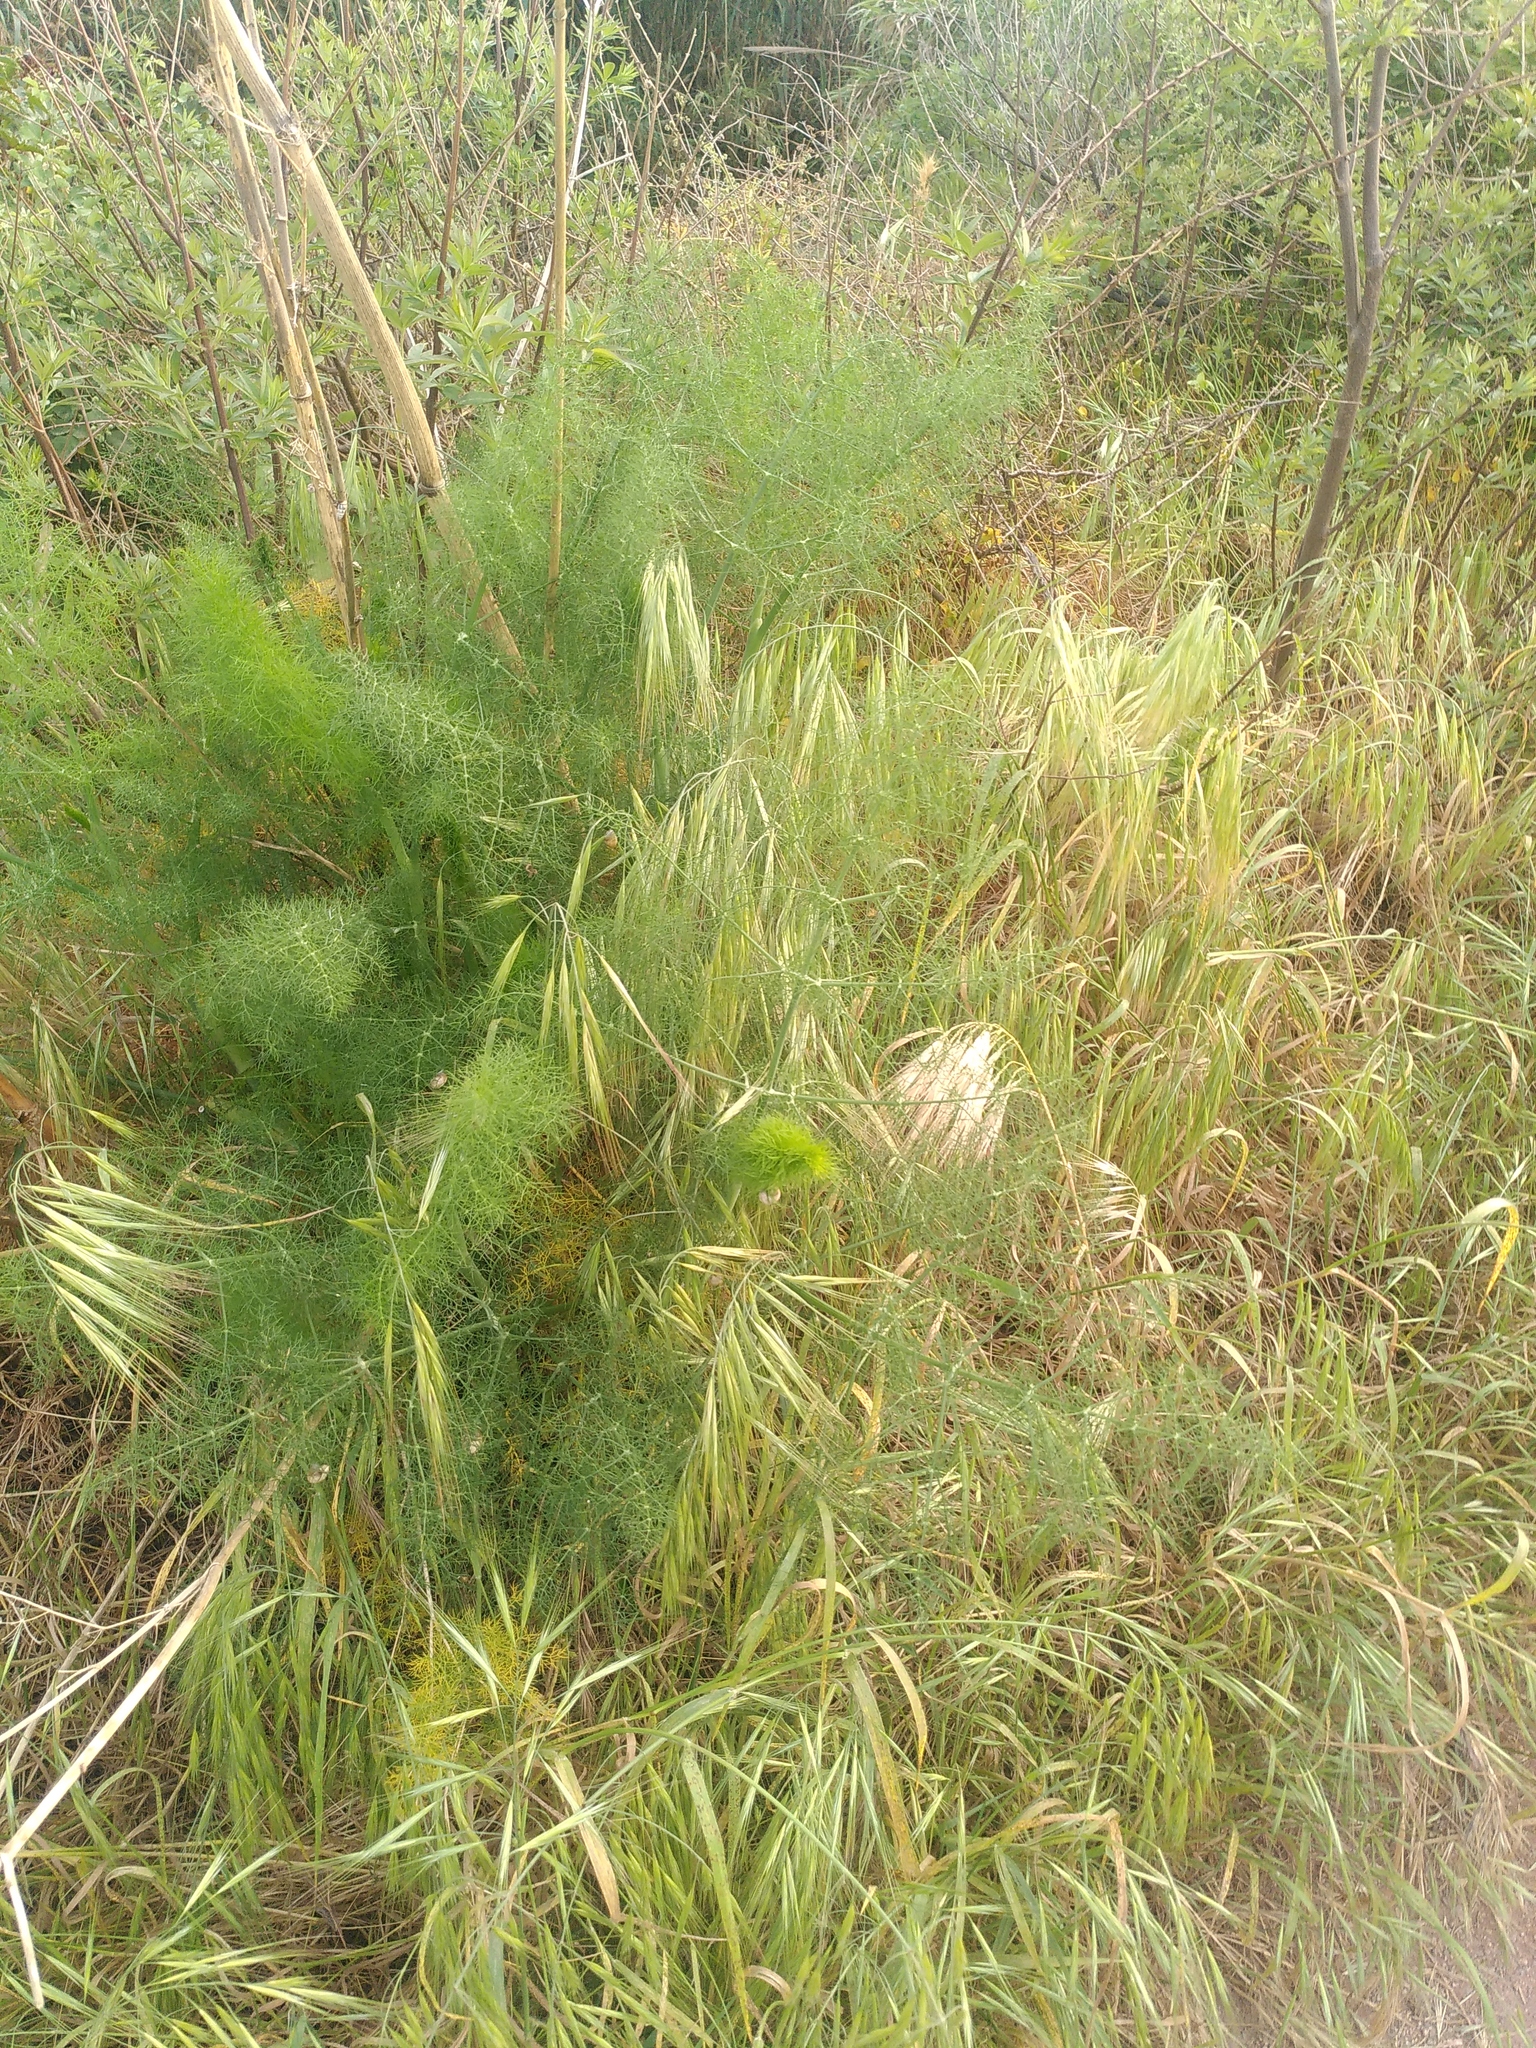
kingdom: Plantae
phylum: Tracheophyta
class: Magnoliopsida
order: Apiales
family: Apiaceae
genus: Foeniculum
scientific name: Foeniculum vulgare
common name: Fennel
